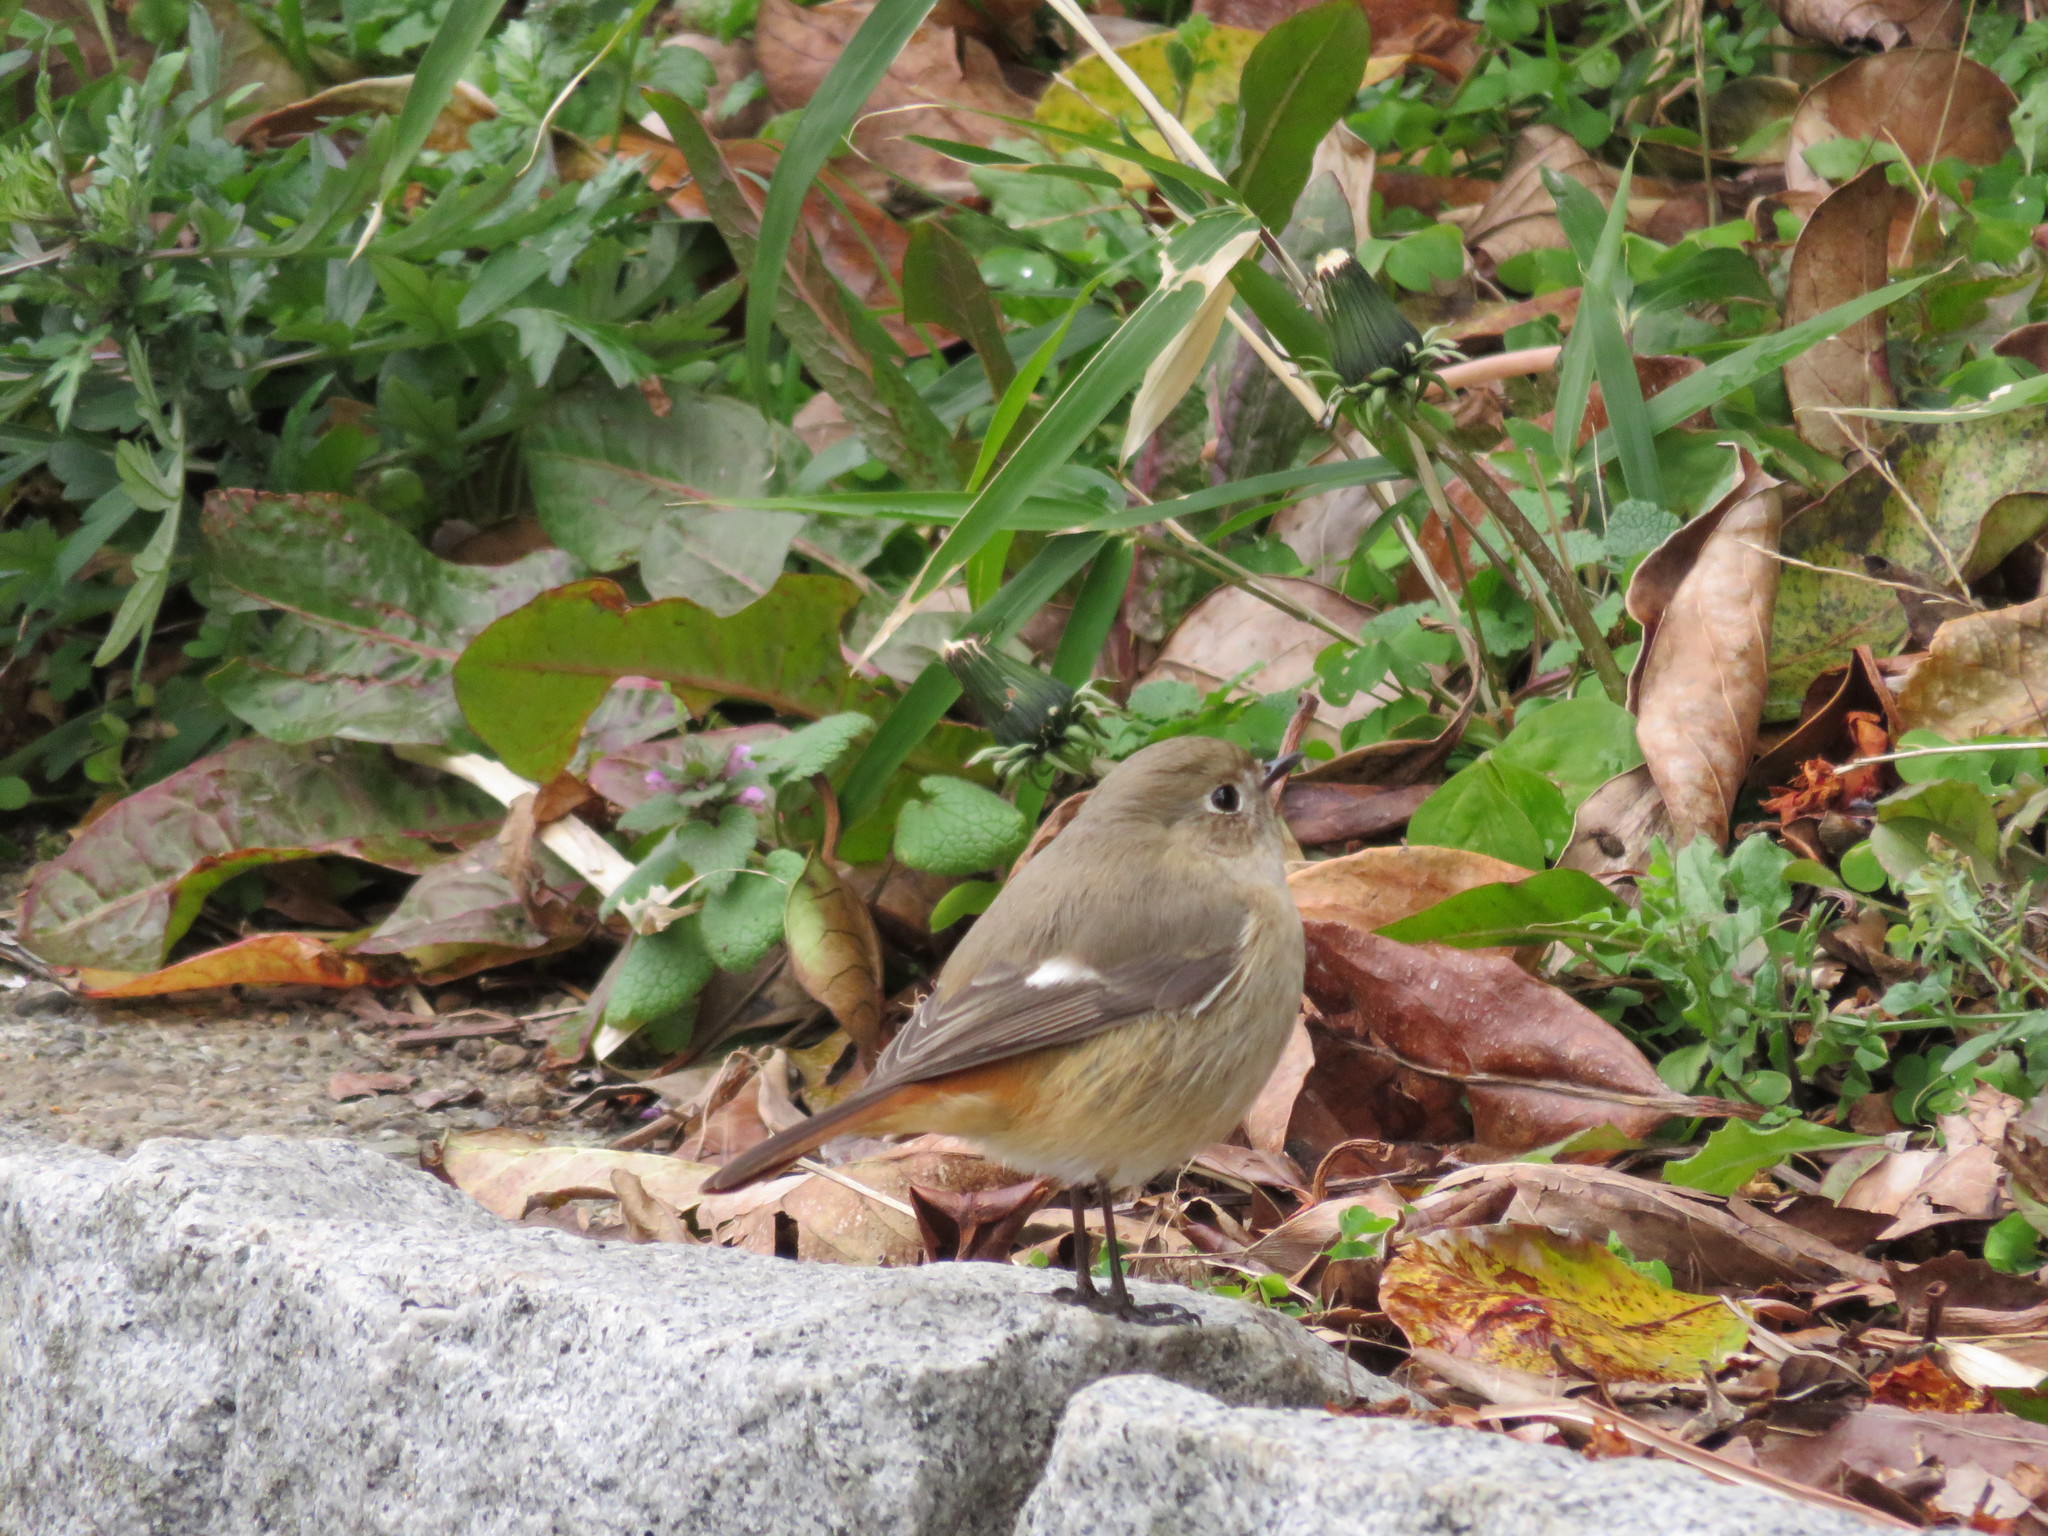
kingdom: Animalia
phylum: Chordata
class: Aves
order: Passeriformes
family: Muscicapidae
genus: Phoenicurus
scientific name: Phoenicurus auroreus
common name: Daurian redstart
